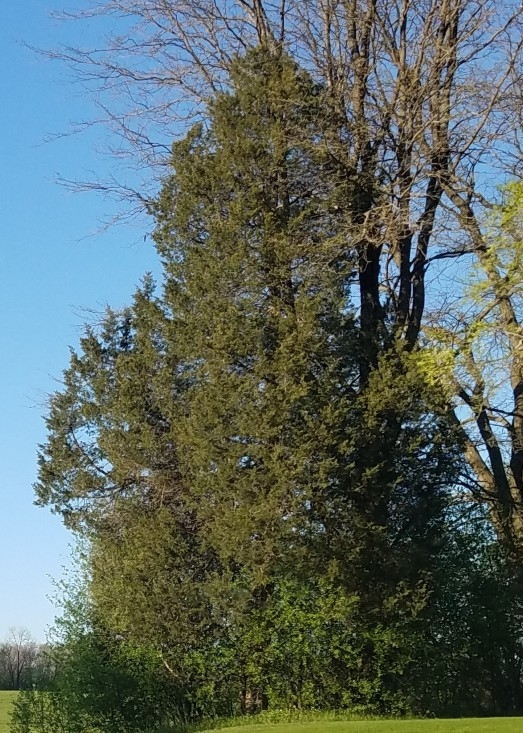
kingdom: Plantae
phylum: Tracheophyta
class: Pinopsida
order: Pinales
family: Cupressaceae
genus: Juniperus
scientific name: Juniperus virginiana
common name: Red juniper
